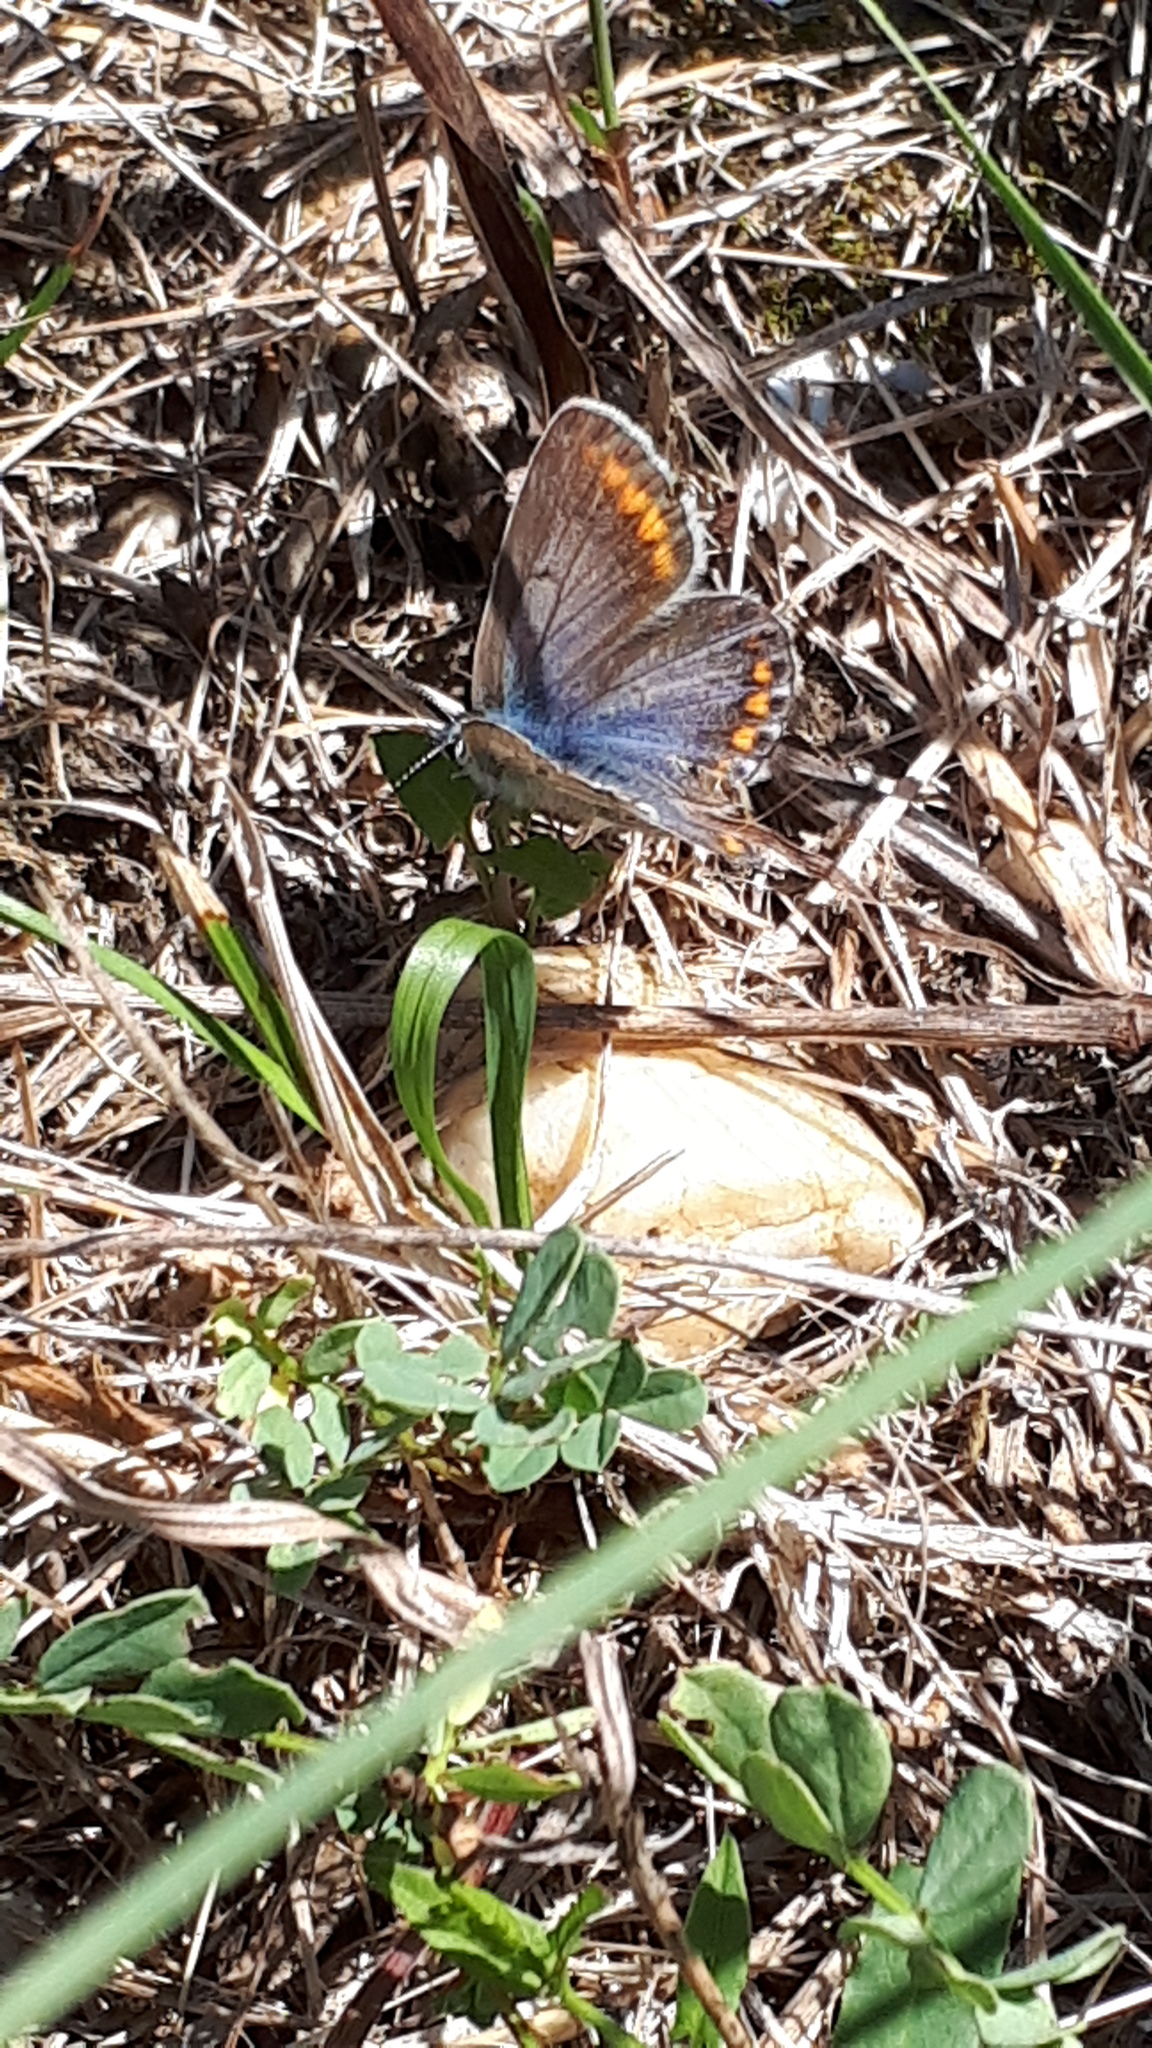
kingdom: Animalia
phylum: Arthropoda
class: Insecta
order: Lepidoptera
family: Lycaenidae
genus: Polyommatus
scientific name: Polyommatus icarus
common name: Common blue
